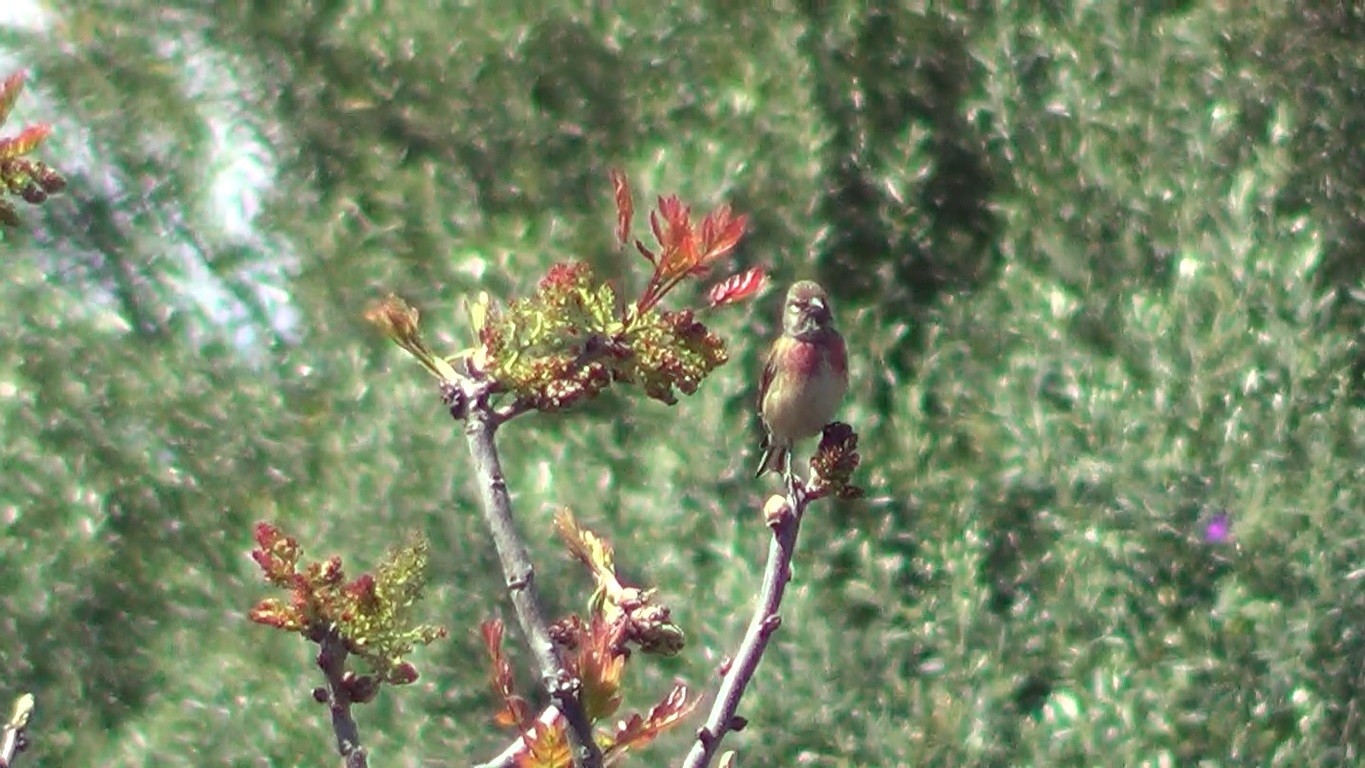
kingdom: Animalia
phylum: Chordata
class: Aves
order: Passeriformes
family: Fringillidae
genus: Linaria
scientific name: Linaria cannabina
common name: Common linnet
